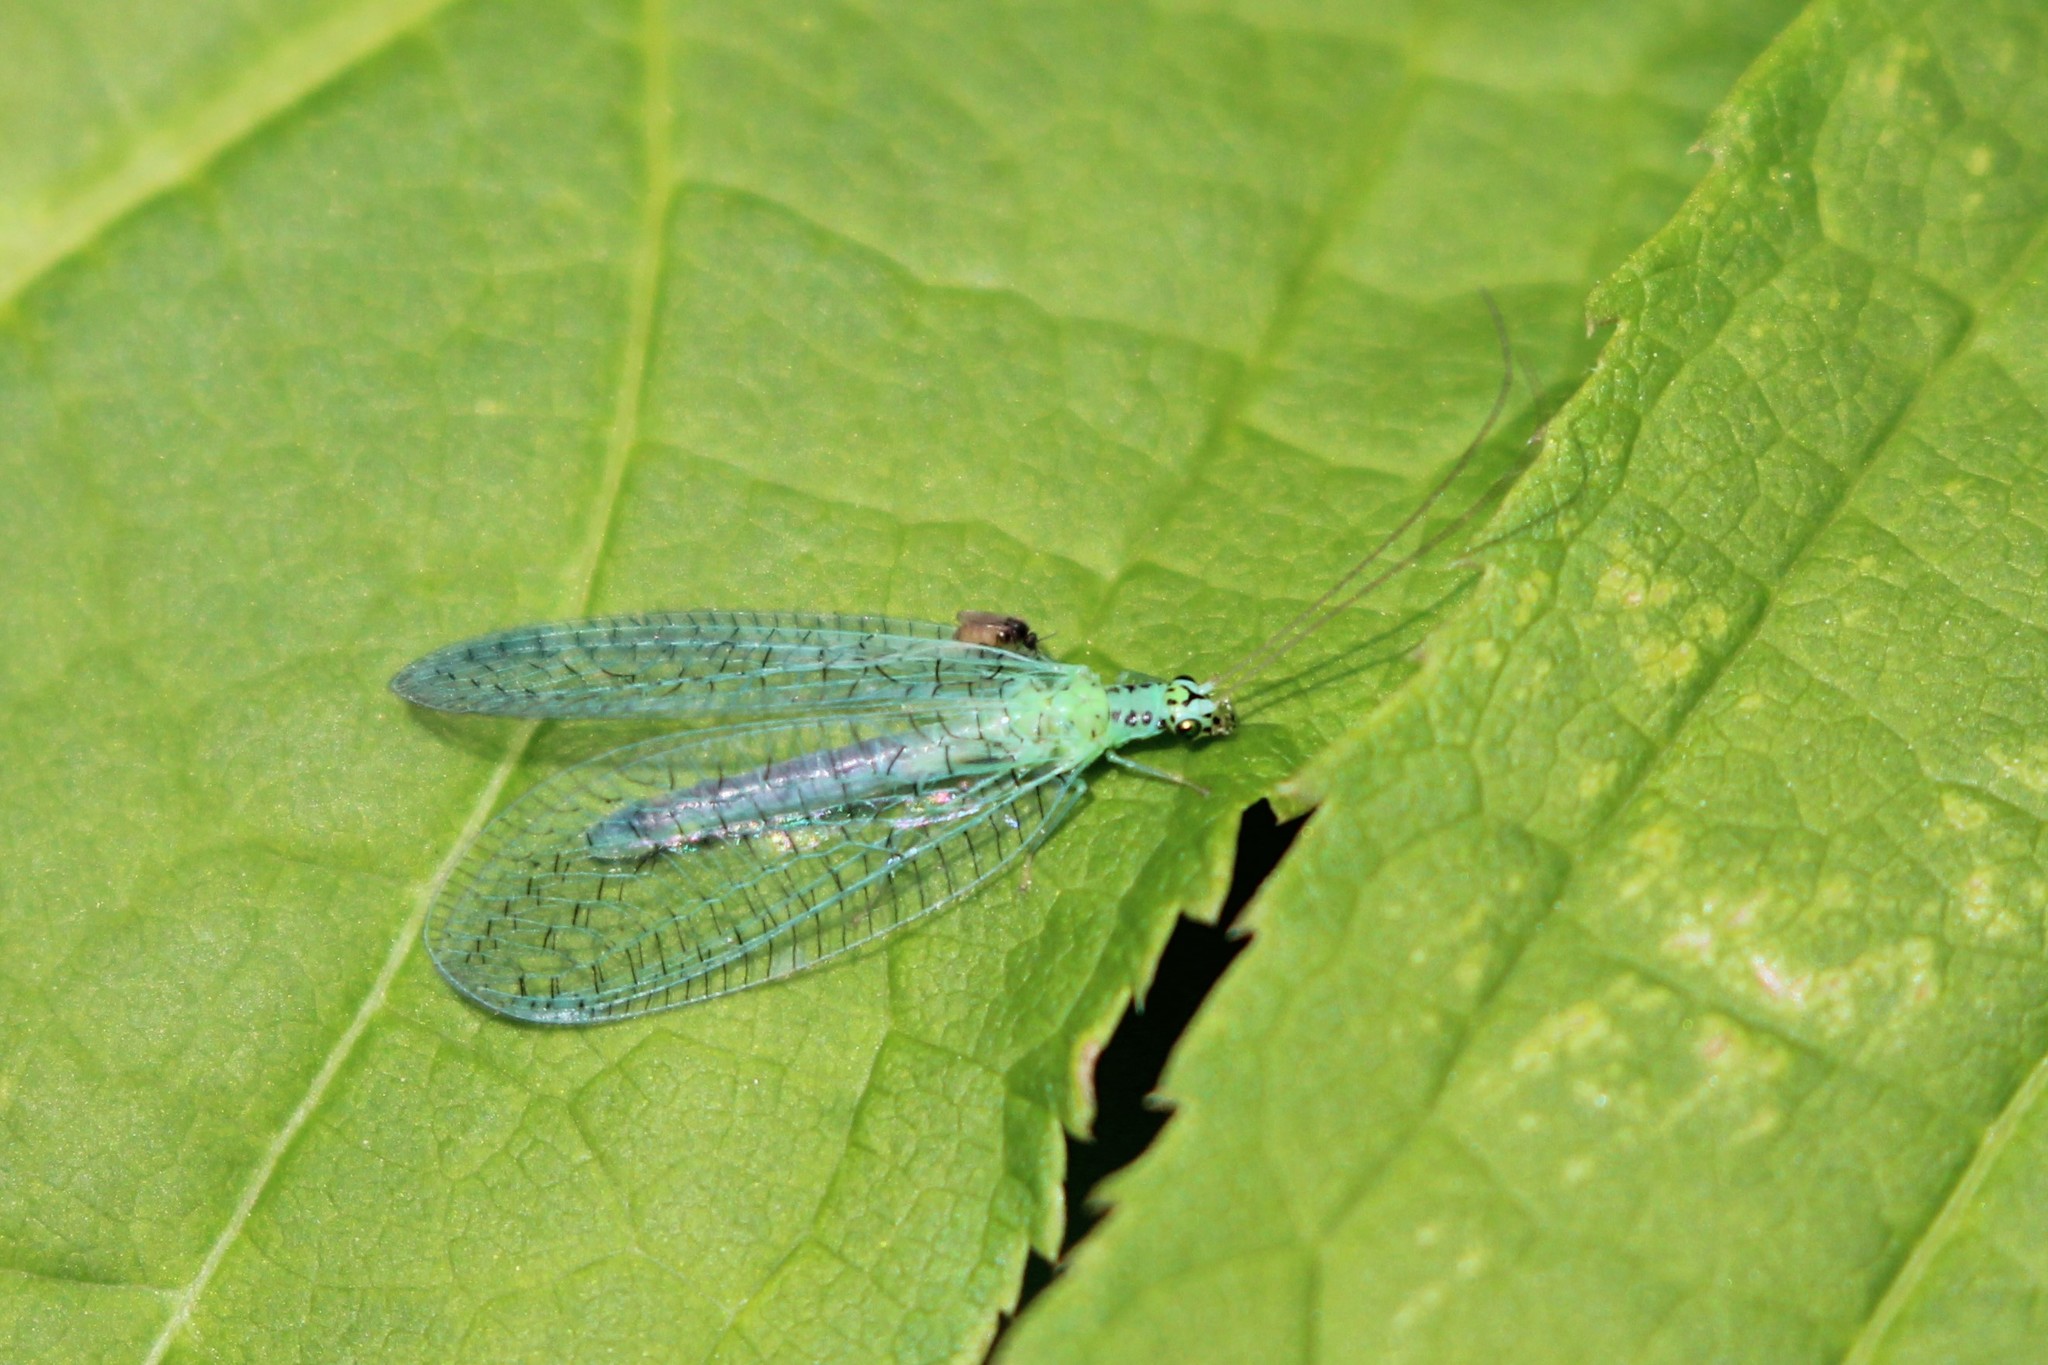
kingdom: Animalia
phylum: Arthropoda
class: Insecta
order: Neuroptera
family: Chrysopidae
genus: Chrysopa
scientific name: Chrysopa chi
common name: X-marked green lacewing
